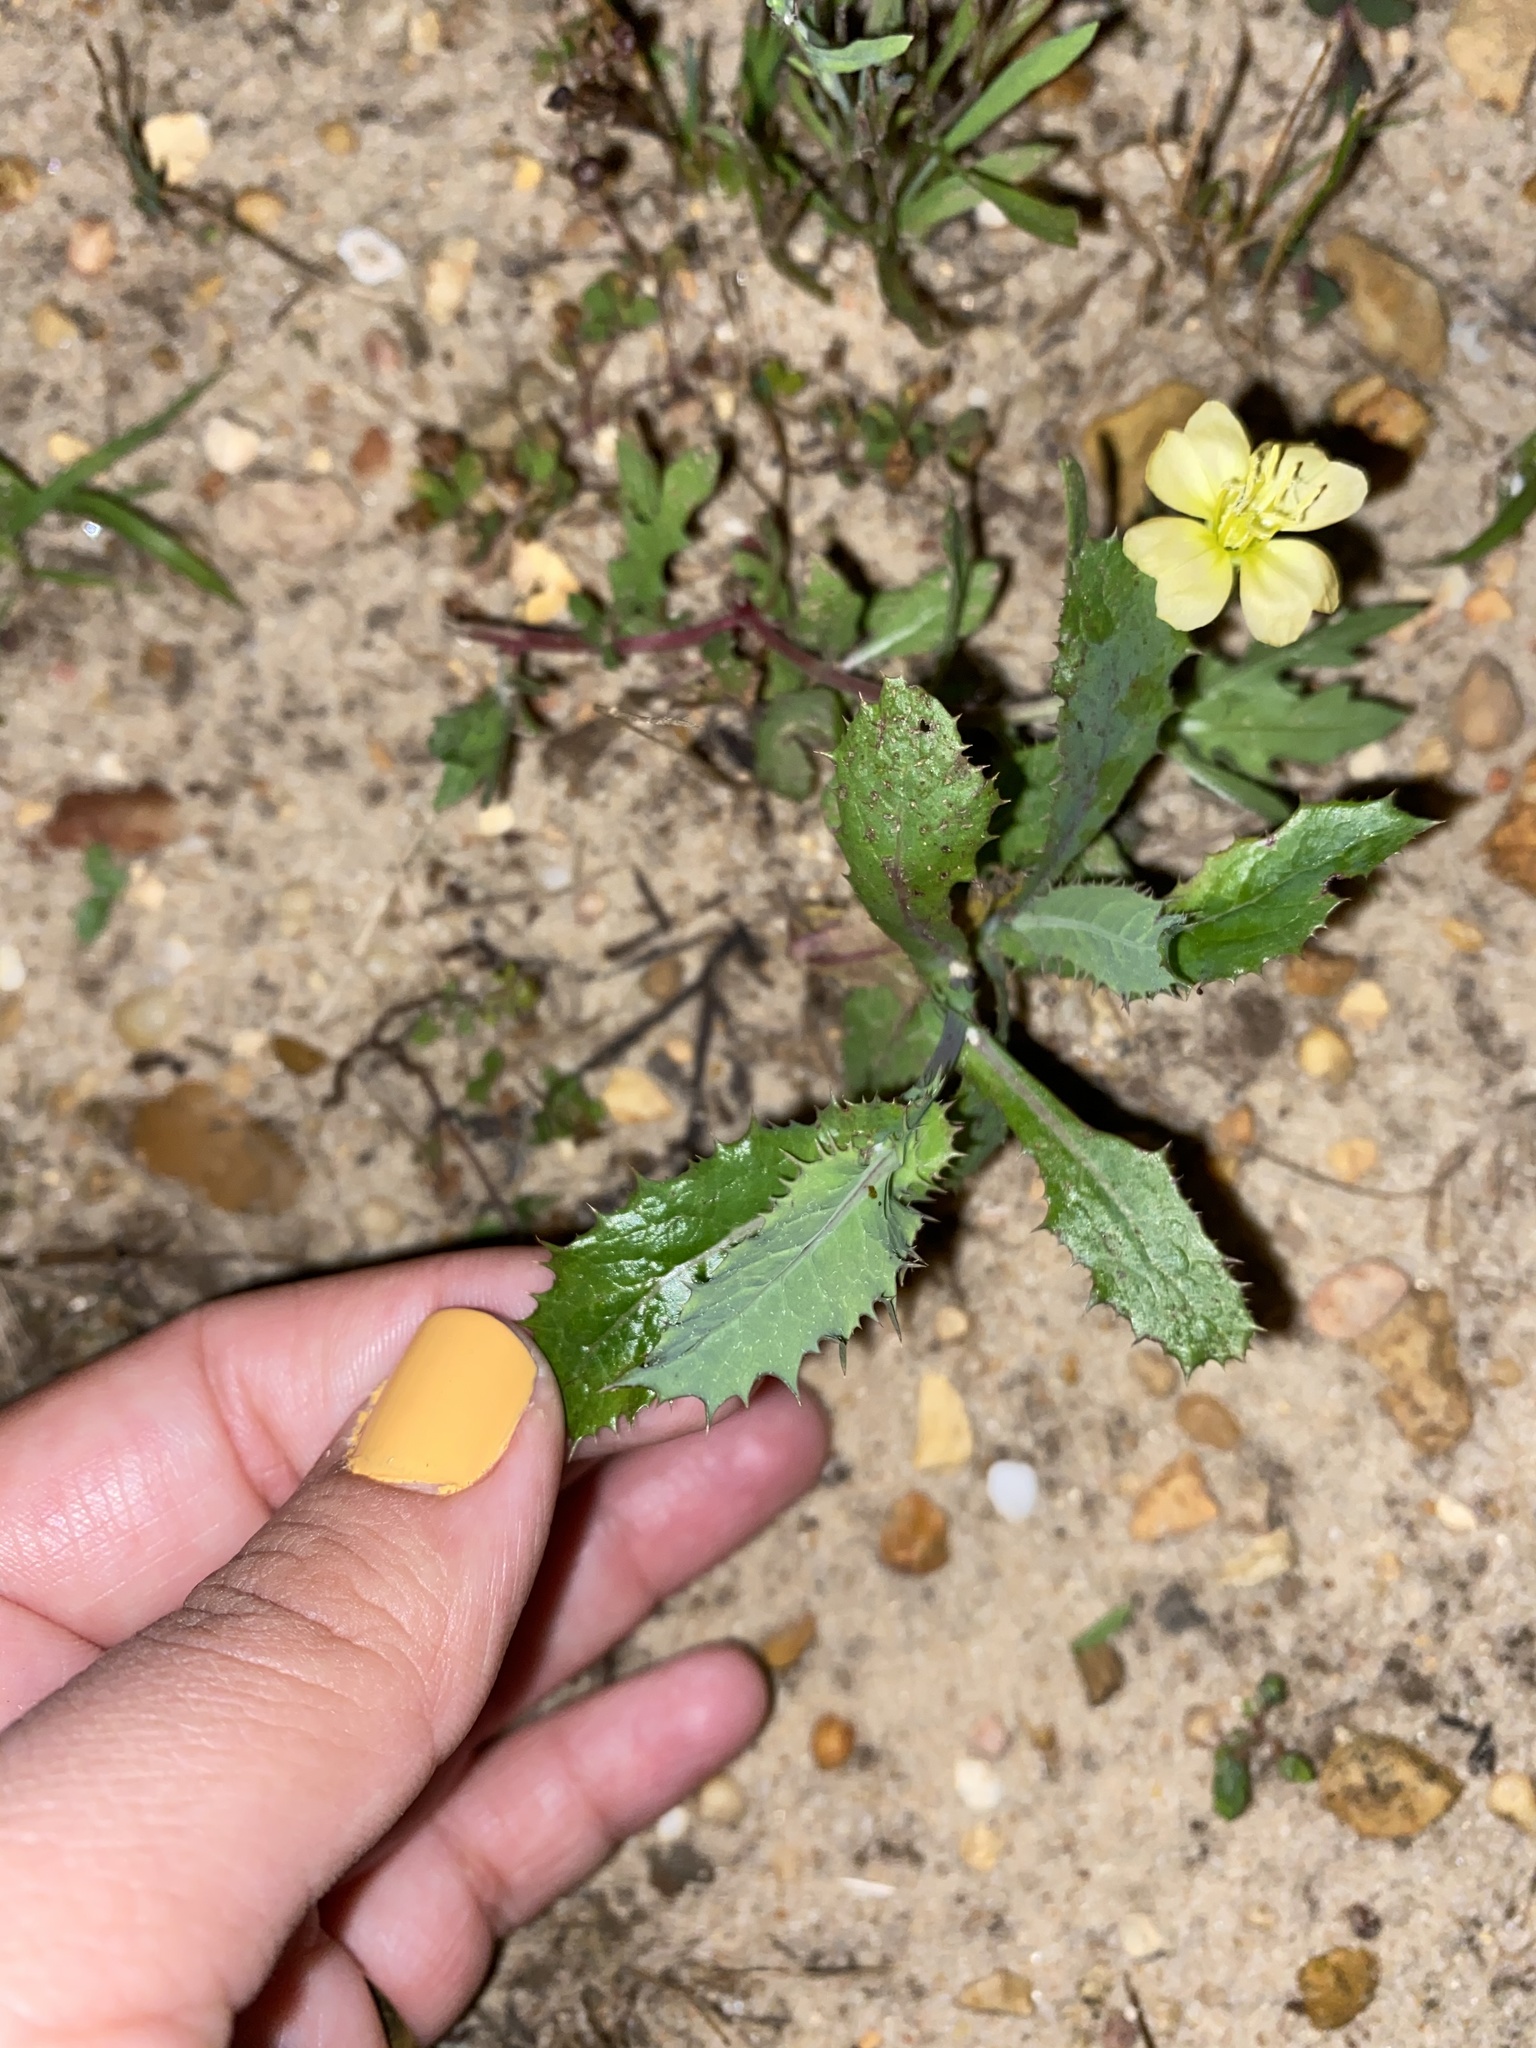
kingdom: Plantae
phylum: Tracheophyta
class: Magnoliopsida
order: Myrtales
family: Onagraceae
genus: Oenothera
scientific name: Oenothera laciniata
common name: Cut-leaved evening-primrose
